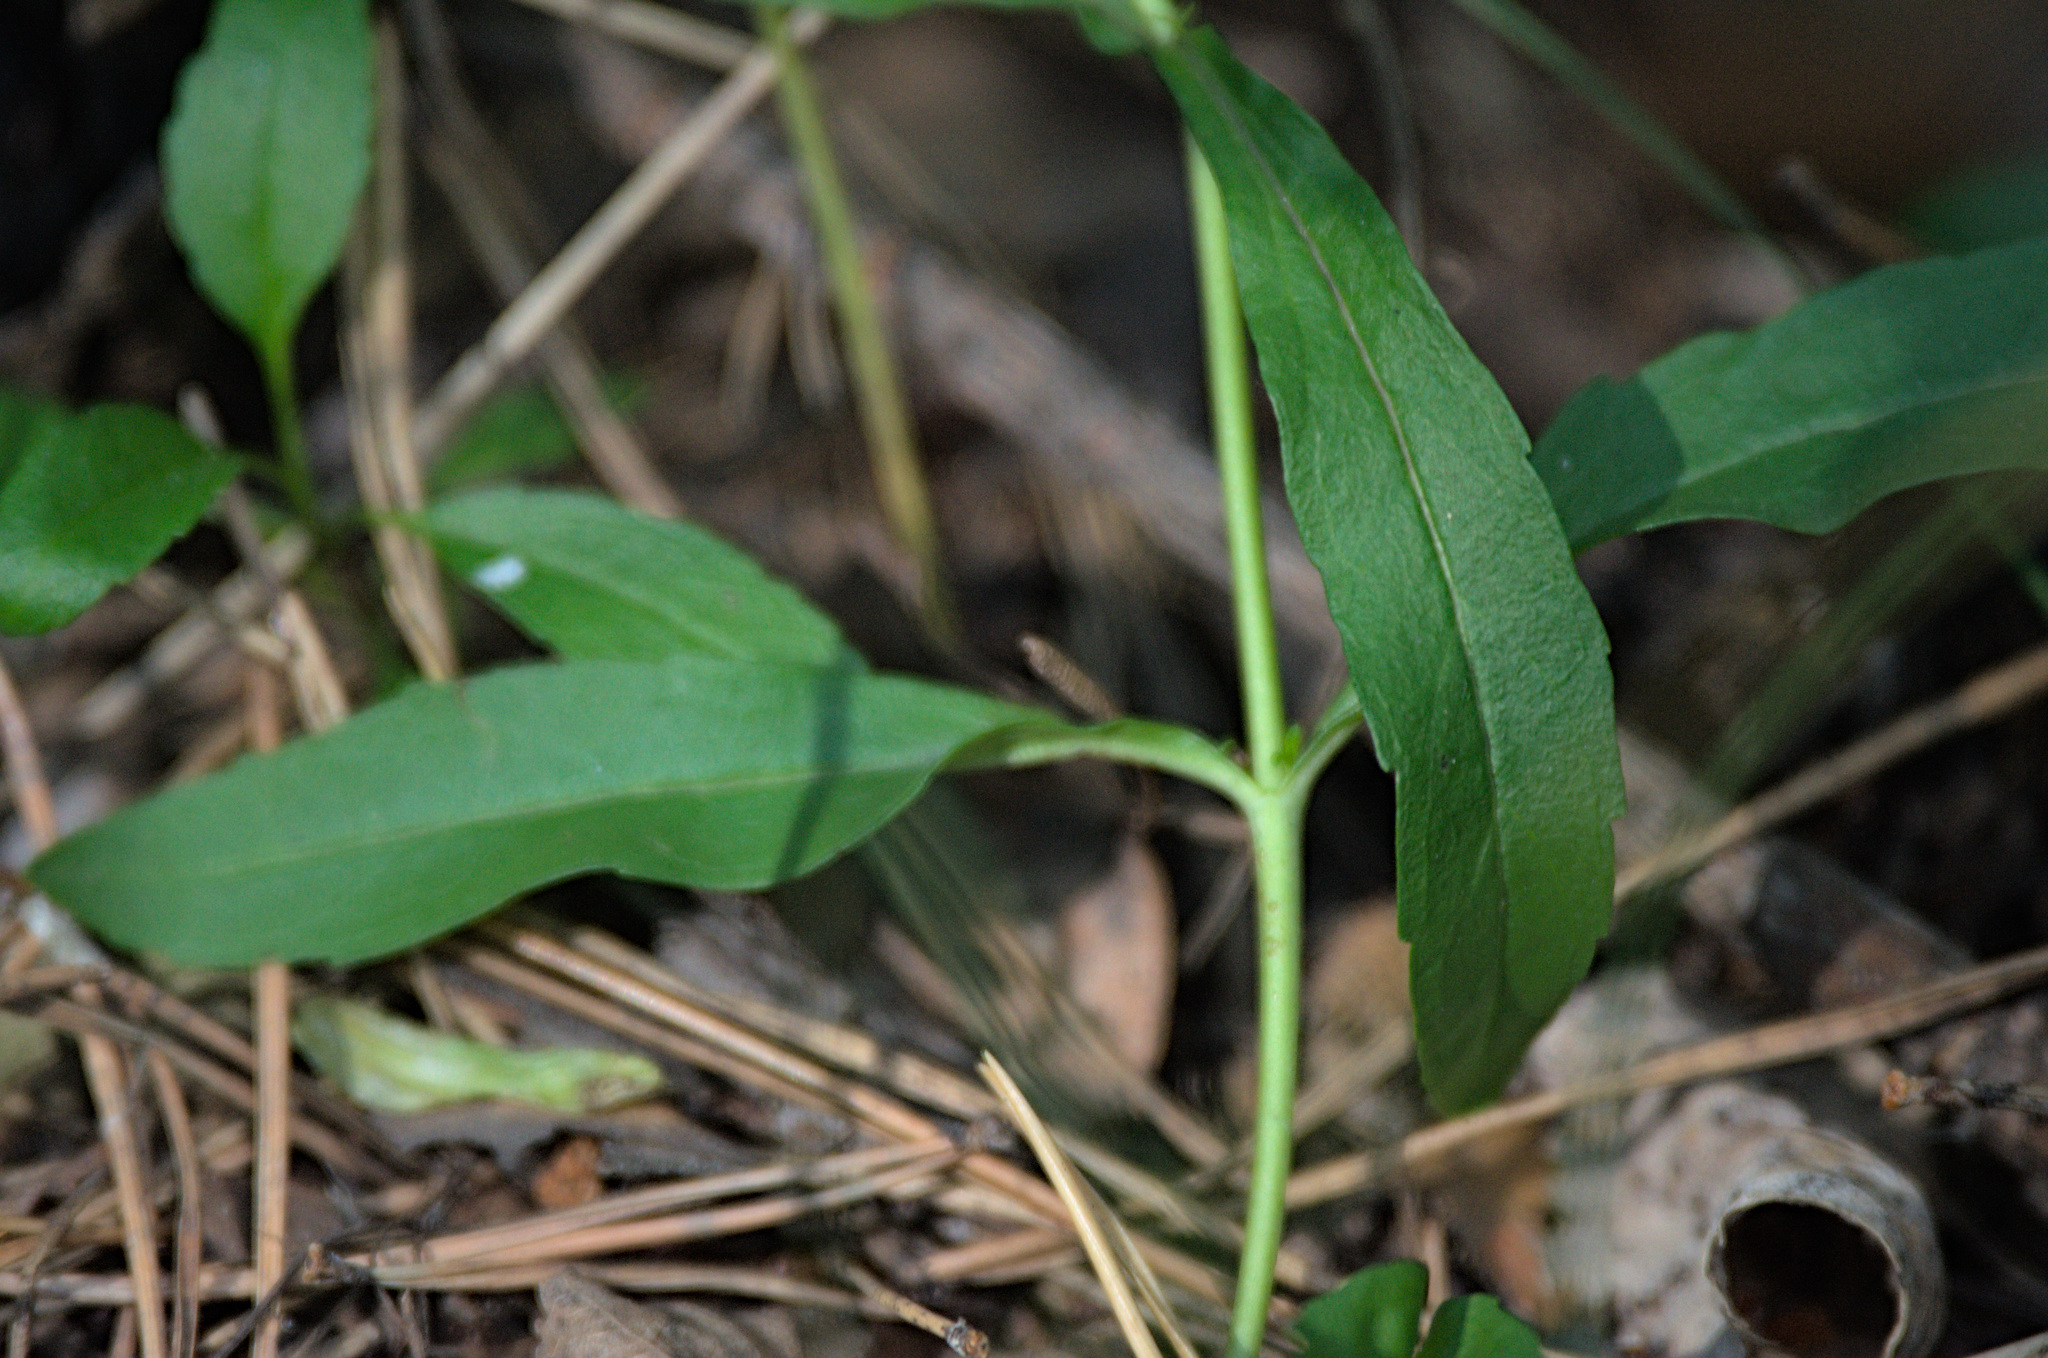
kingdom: Plantae
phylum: Tracheophyta
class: Magnoliopsida
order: Lamiales
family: Plantaginaceae
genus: Veronica
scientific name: Veronica spicata
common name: Spiked speedwell
